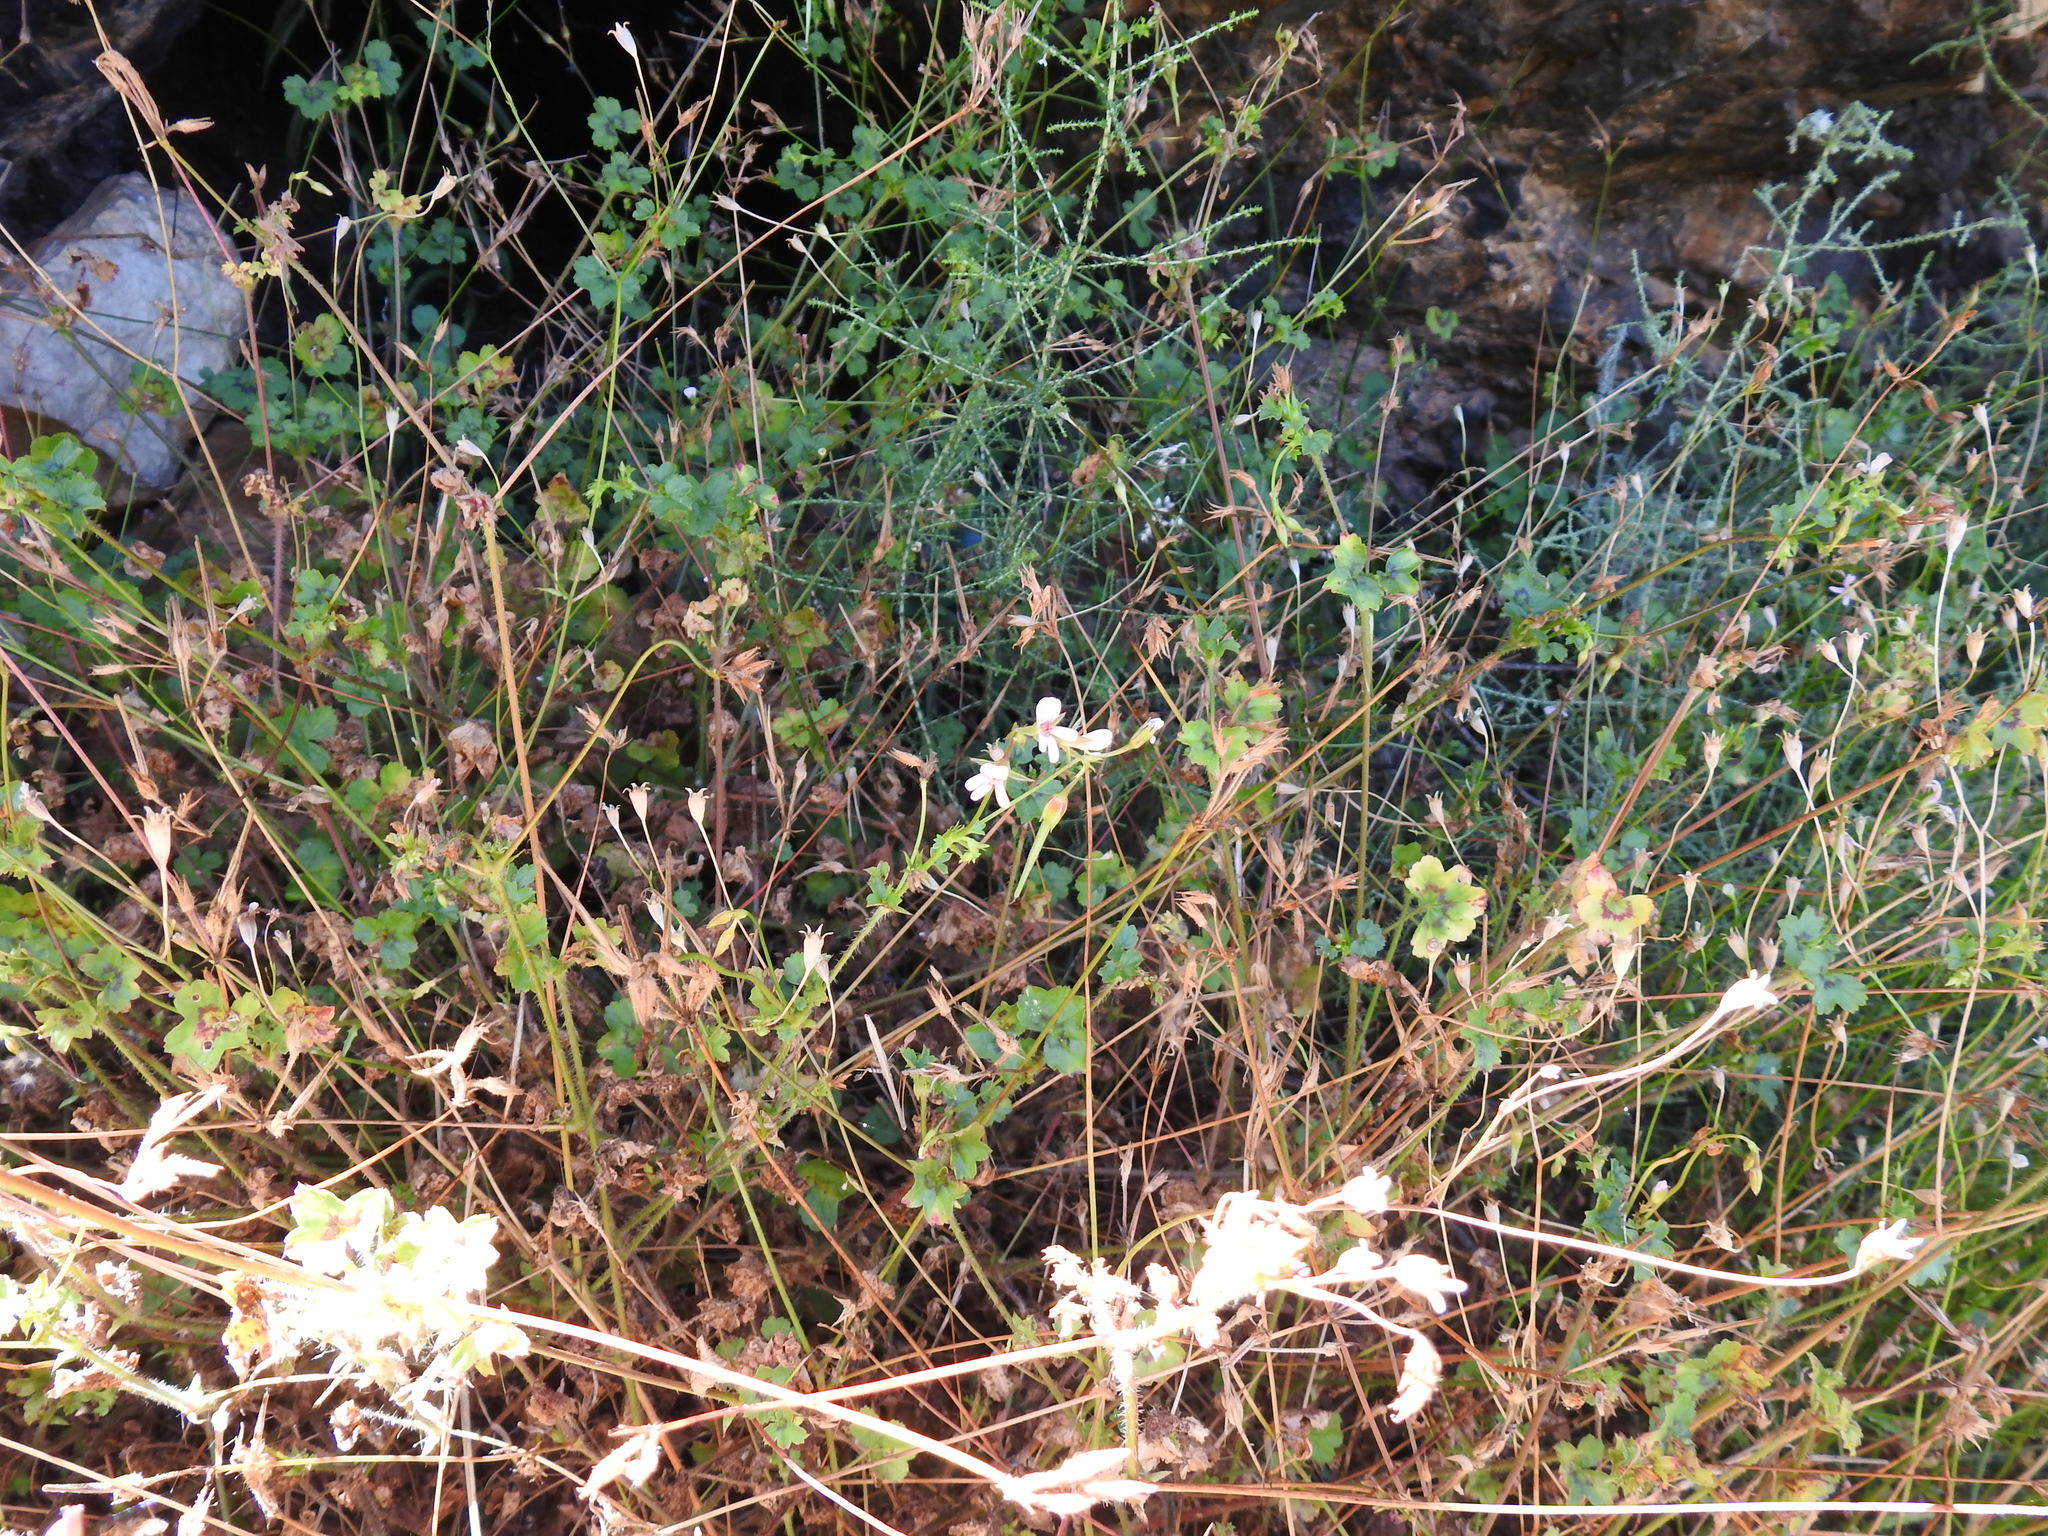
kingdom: Plantae
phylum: Tracheophyta
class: Magnoliopsida
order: Geraniales
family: Geraniaceae
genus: Pelargonium
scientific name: Pelargonium elongatum
